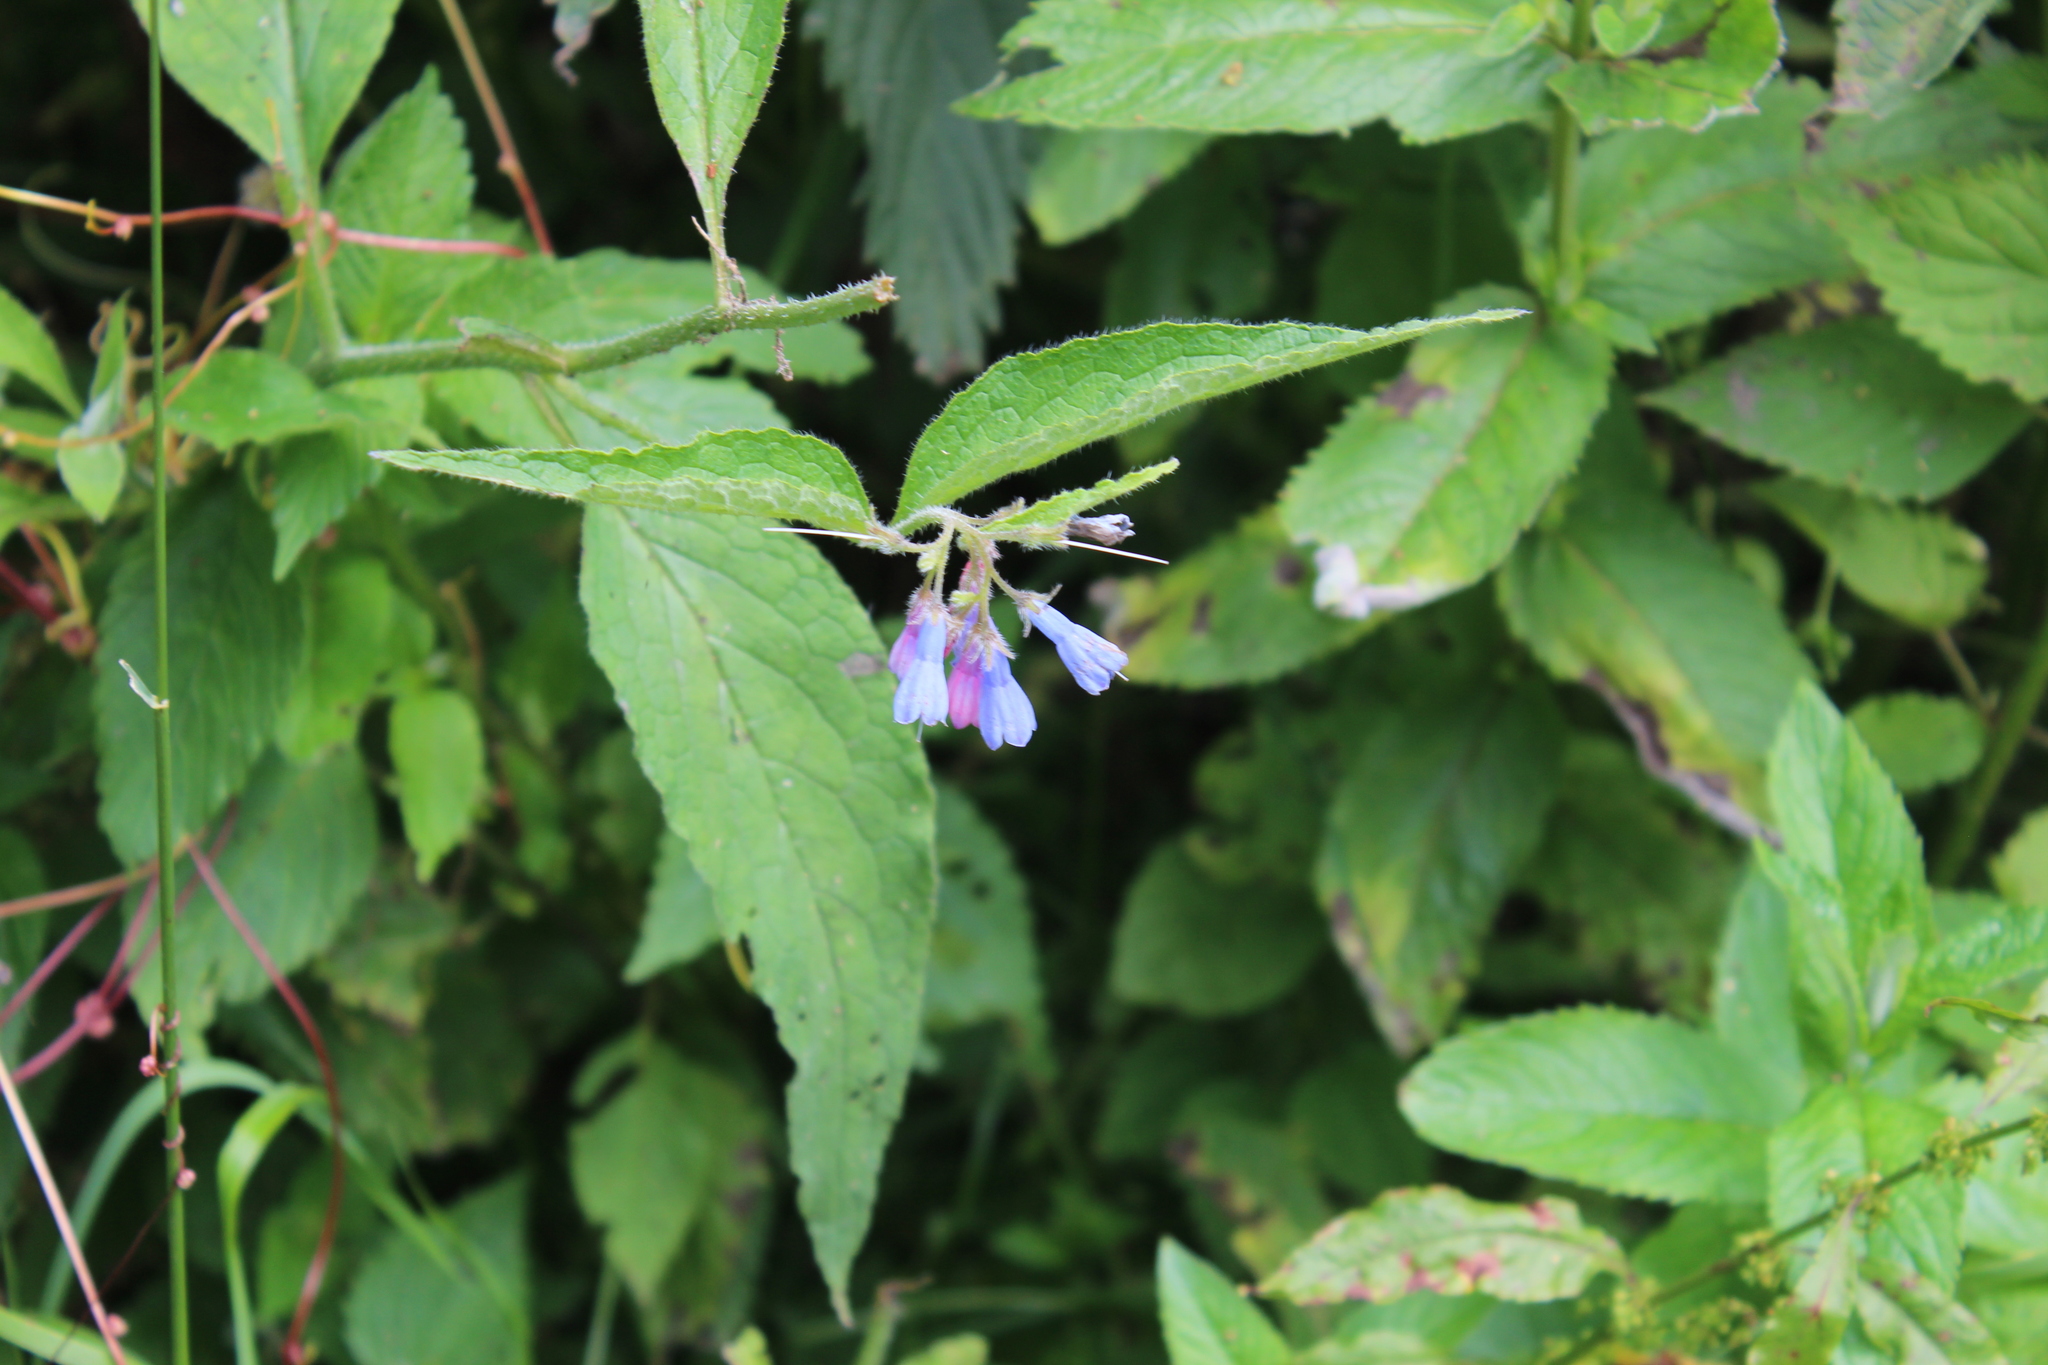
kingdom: Plantae
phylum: Tracheophyta
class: Magnoliopsida
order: Boraginales
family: Boraginaceae
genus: Symphytum
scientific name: Symphytum asperum
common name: Prickly comfrey
